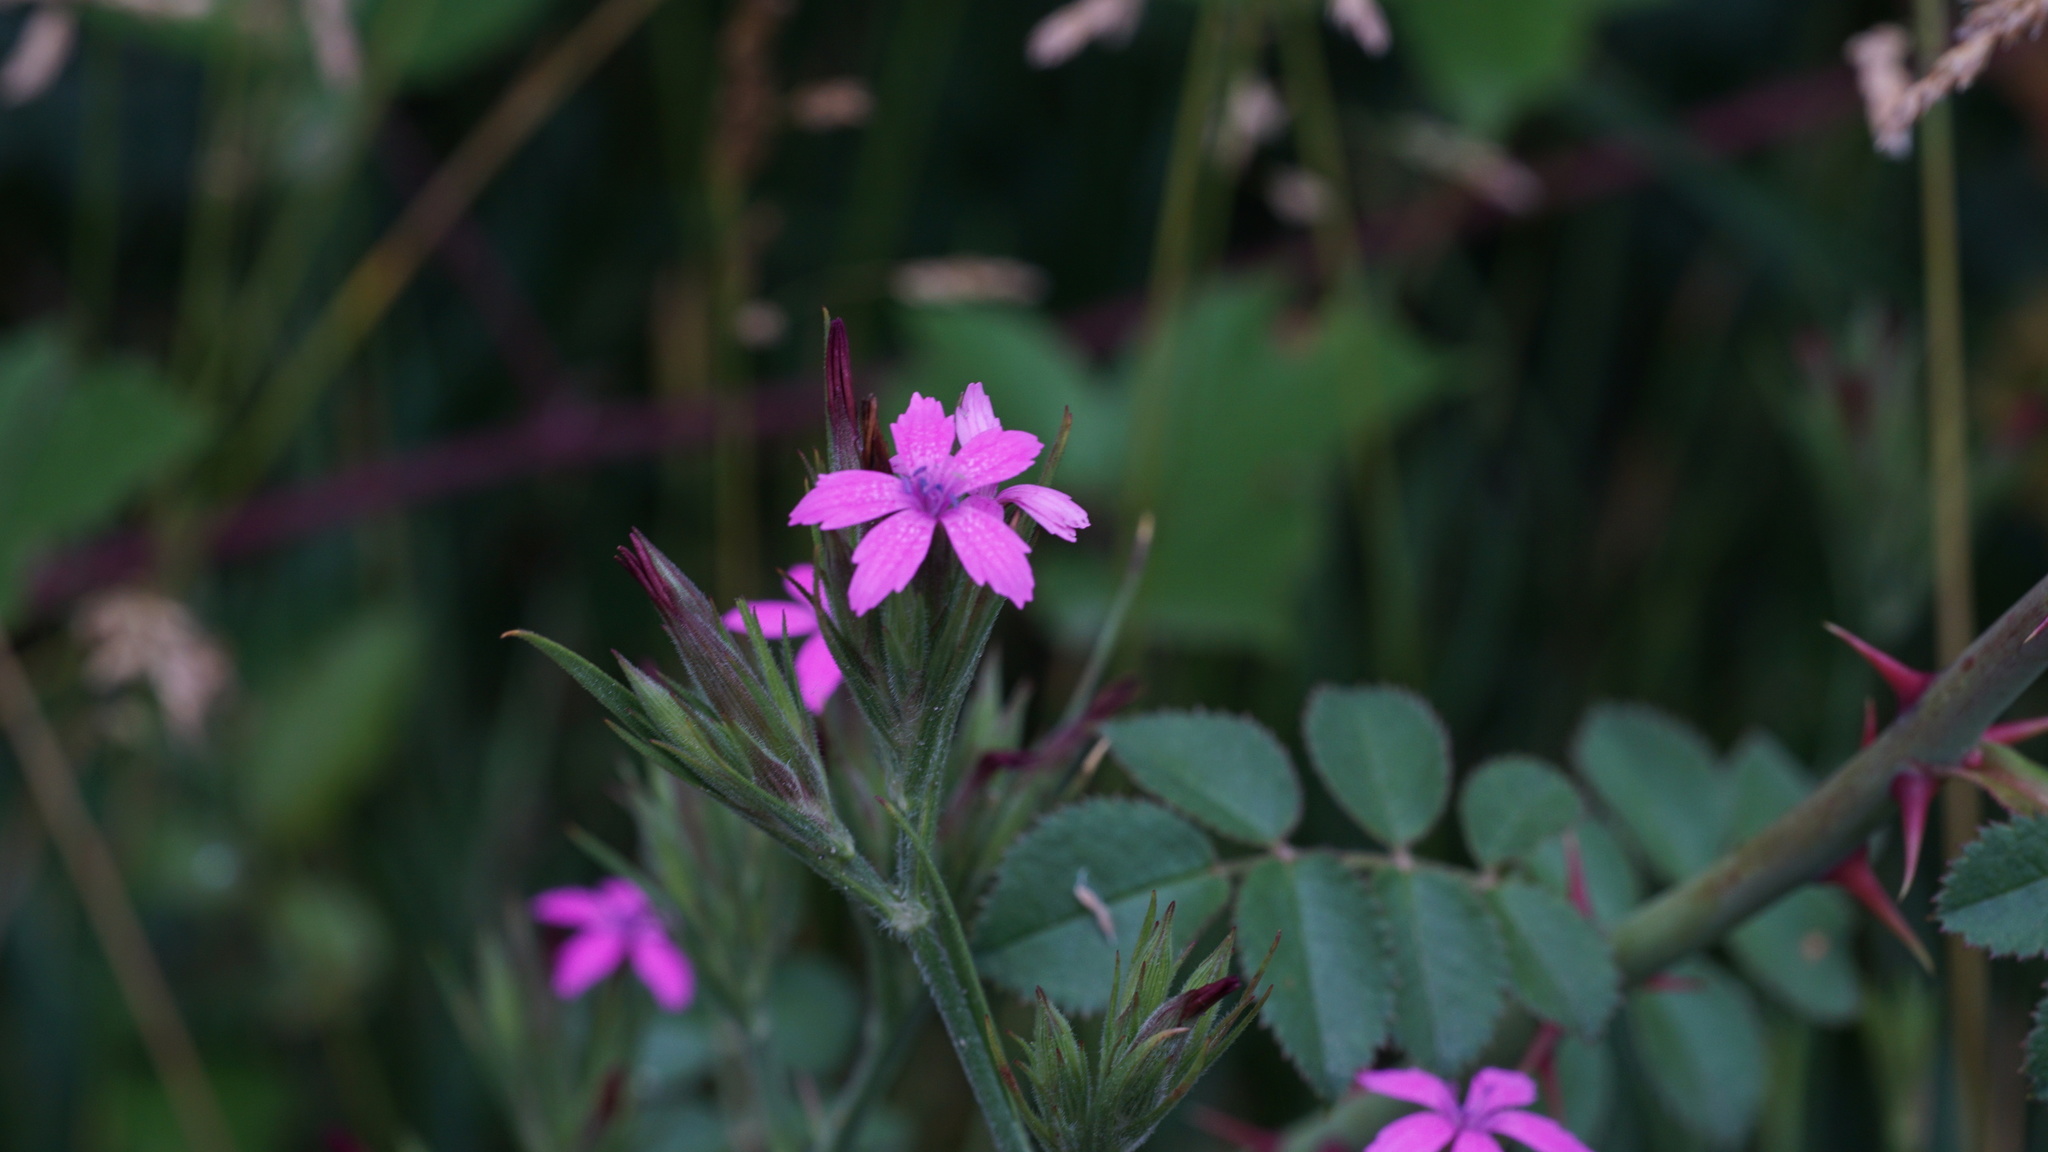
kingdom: Plantae
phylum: Tracheophyta
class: Magnoliopsida
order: Caryophyllales
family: Caryophyllaceae
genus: Dianthus
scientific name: Dianthus armeria
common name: Deptford pink
